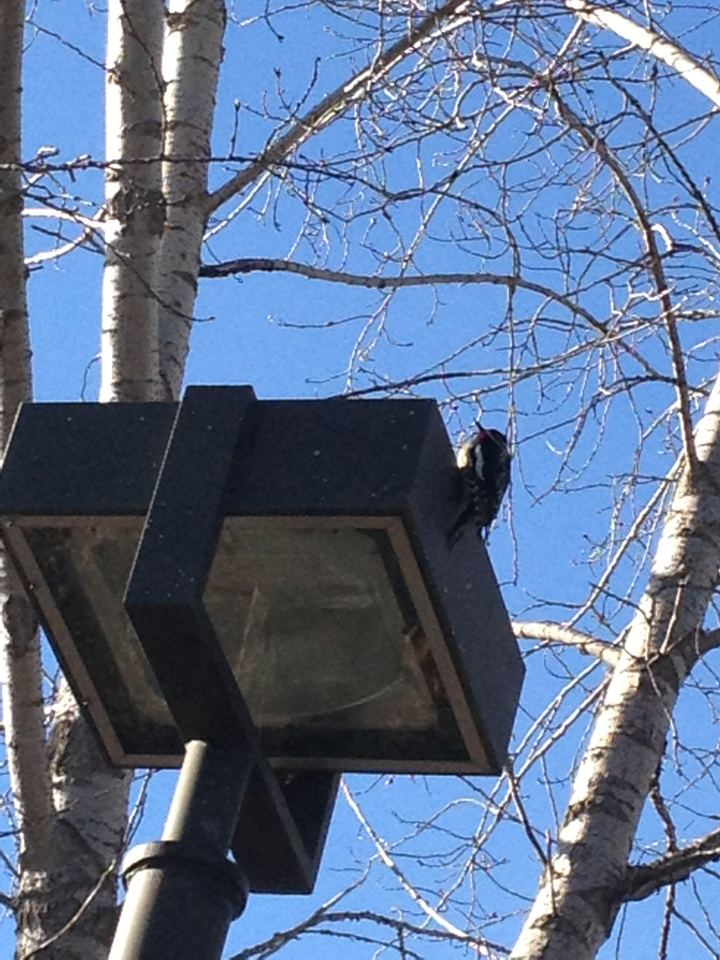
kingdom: Animalia
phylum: Chordata
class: Aves
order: Piciformes
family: Picidae
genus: Sphyrapicus
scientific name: Sphyrapicus varius
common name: Yellow-bellied sapsucker
